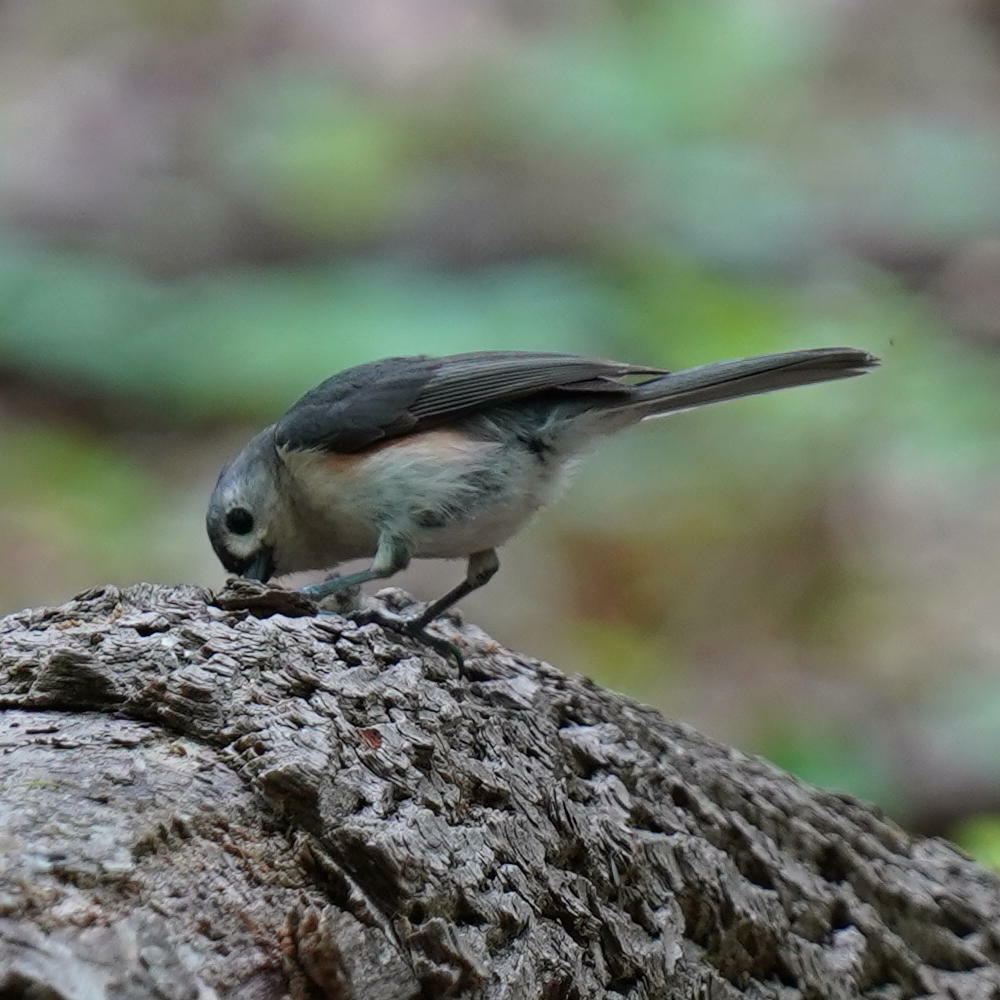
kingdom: Animalia
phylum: Chordata
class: Aves
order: Passeriformes
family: Paridae
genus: Baeolophus
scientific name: Baeolophus bicolor
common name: Tufted titmouse
